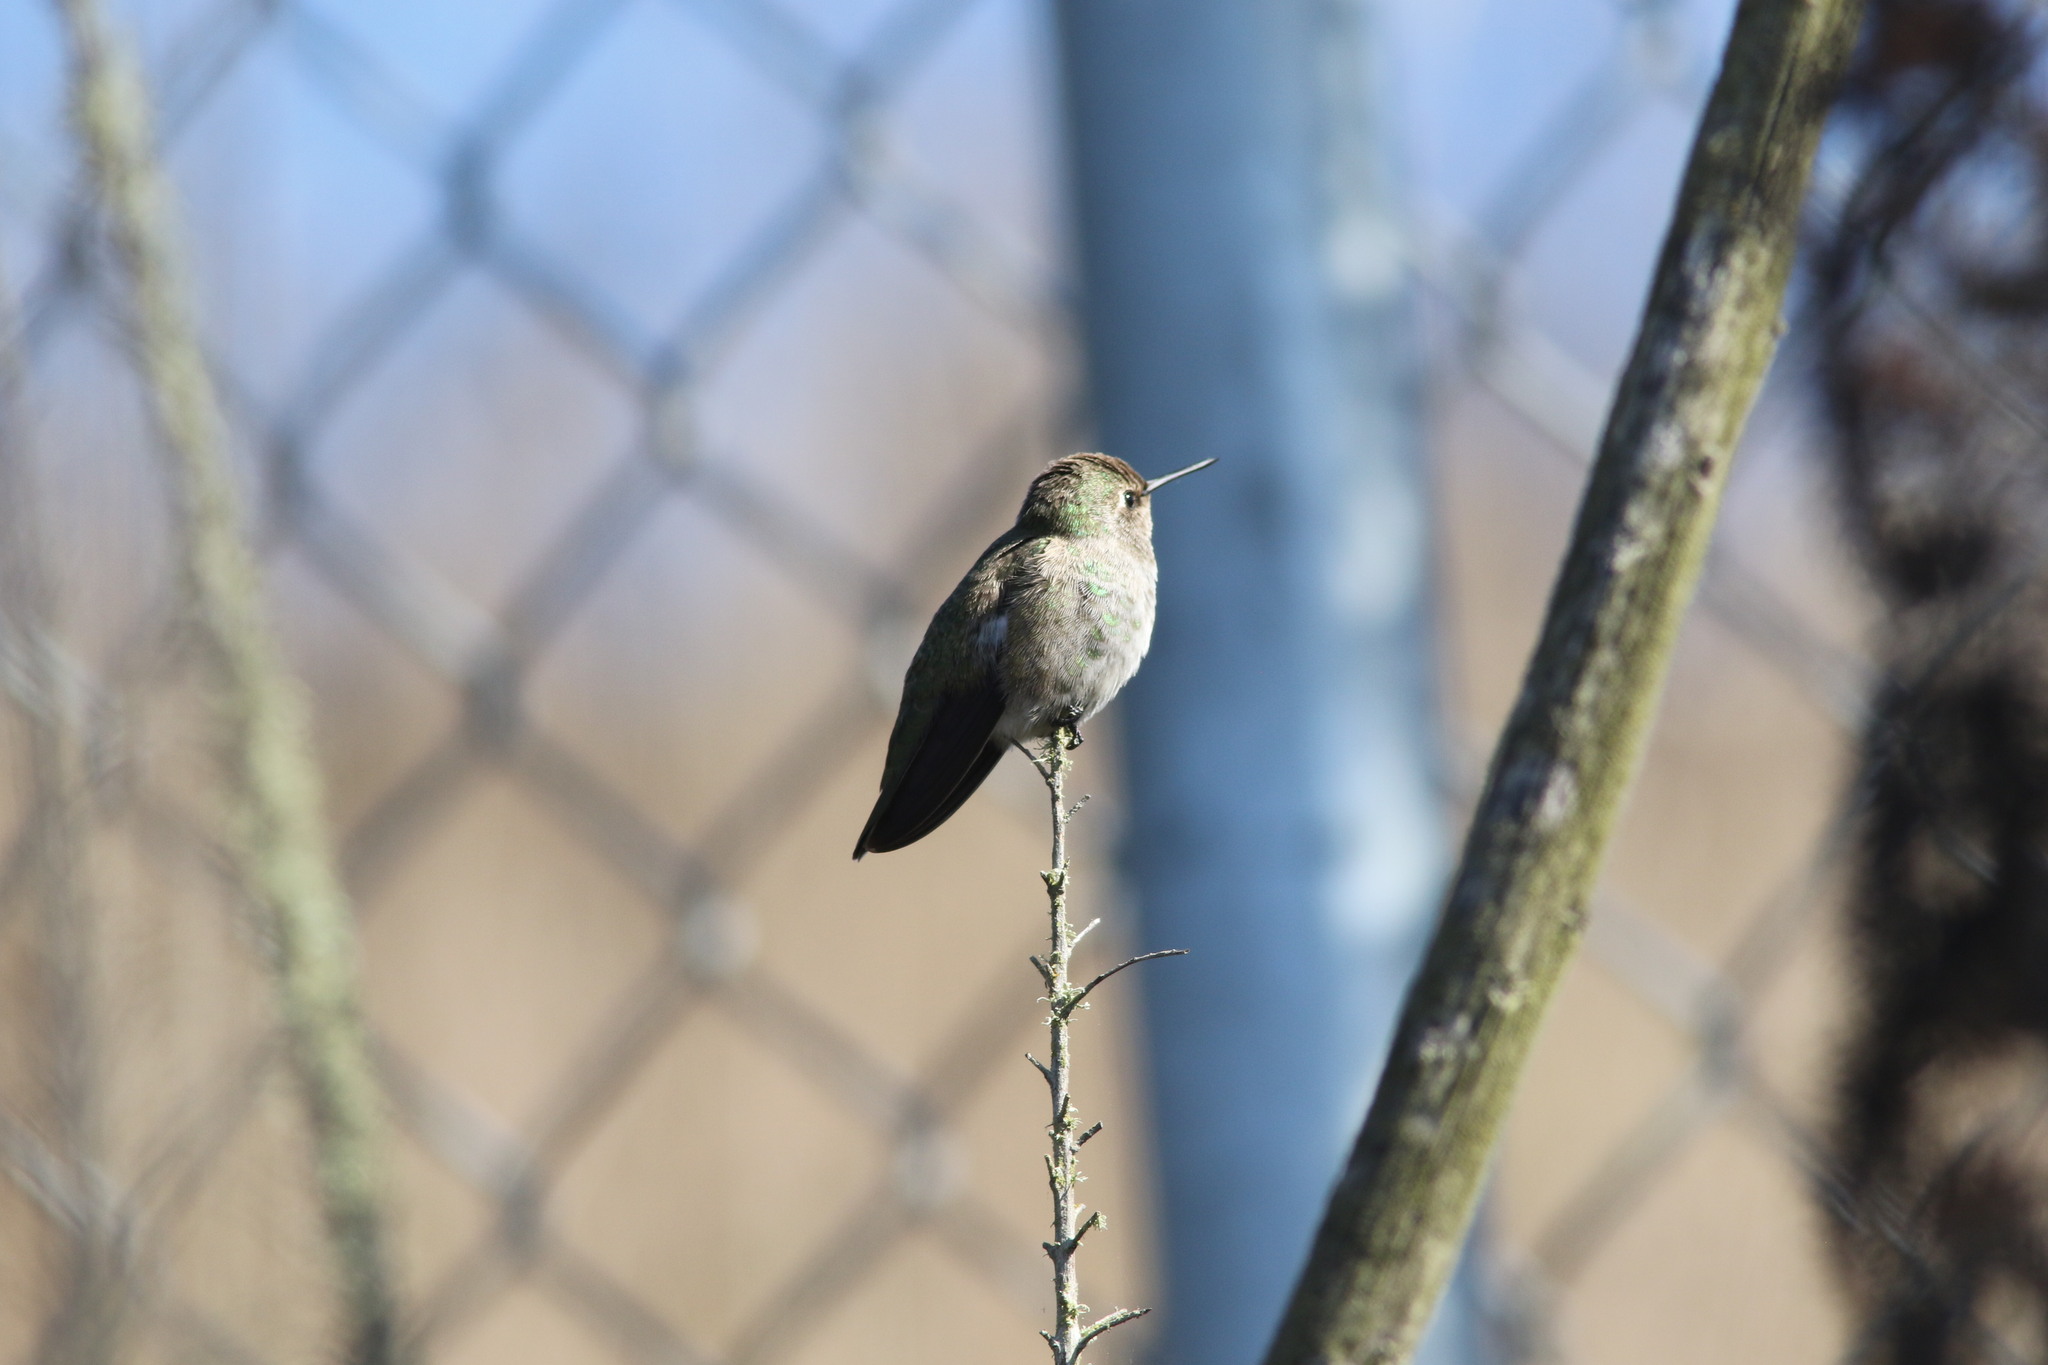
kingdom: Animalia
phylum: Chordata
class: Aves
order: Apodiformes
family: Trochilidae
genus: Calypte
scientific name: Calypte anna
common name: Anna's hummingbird
